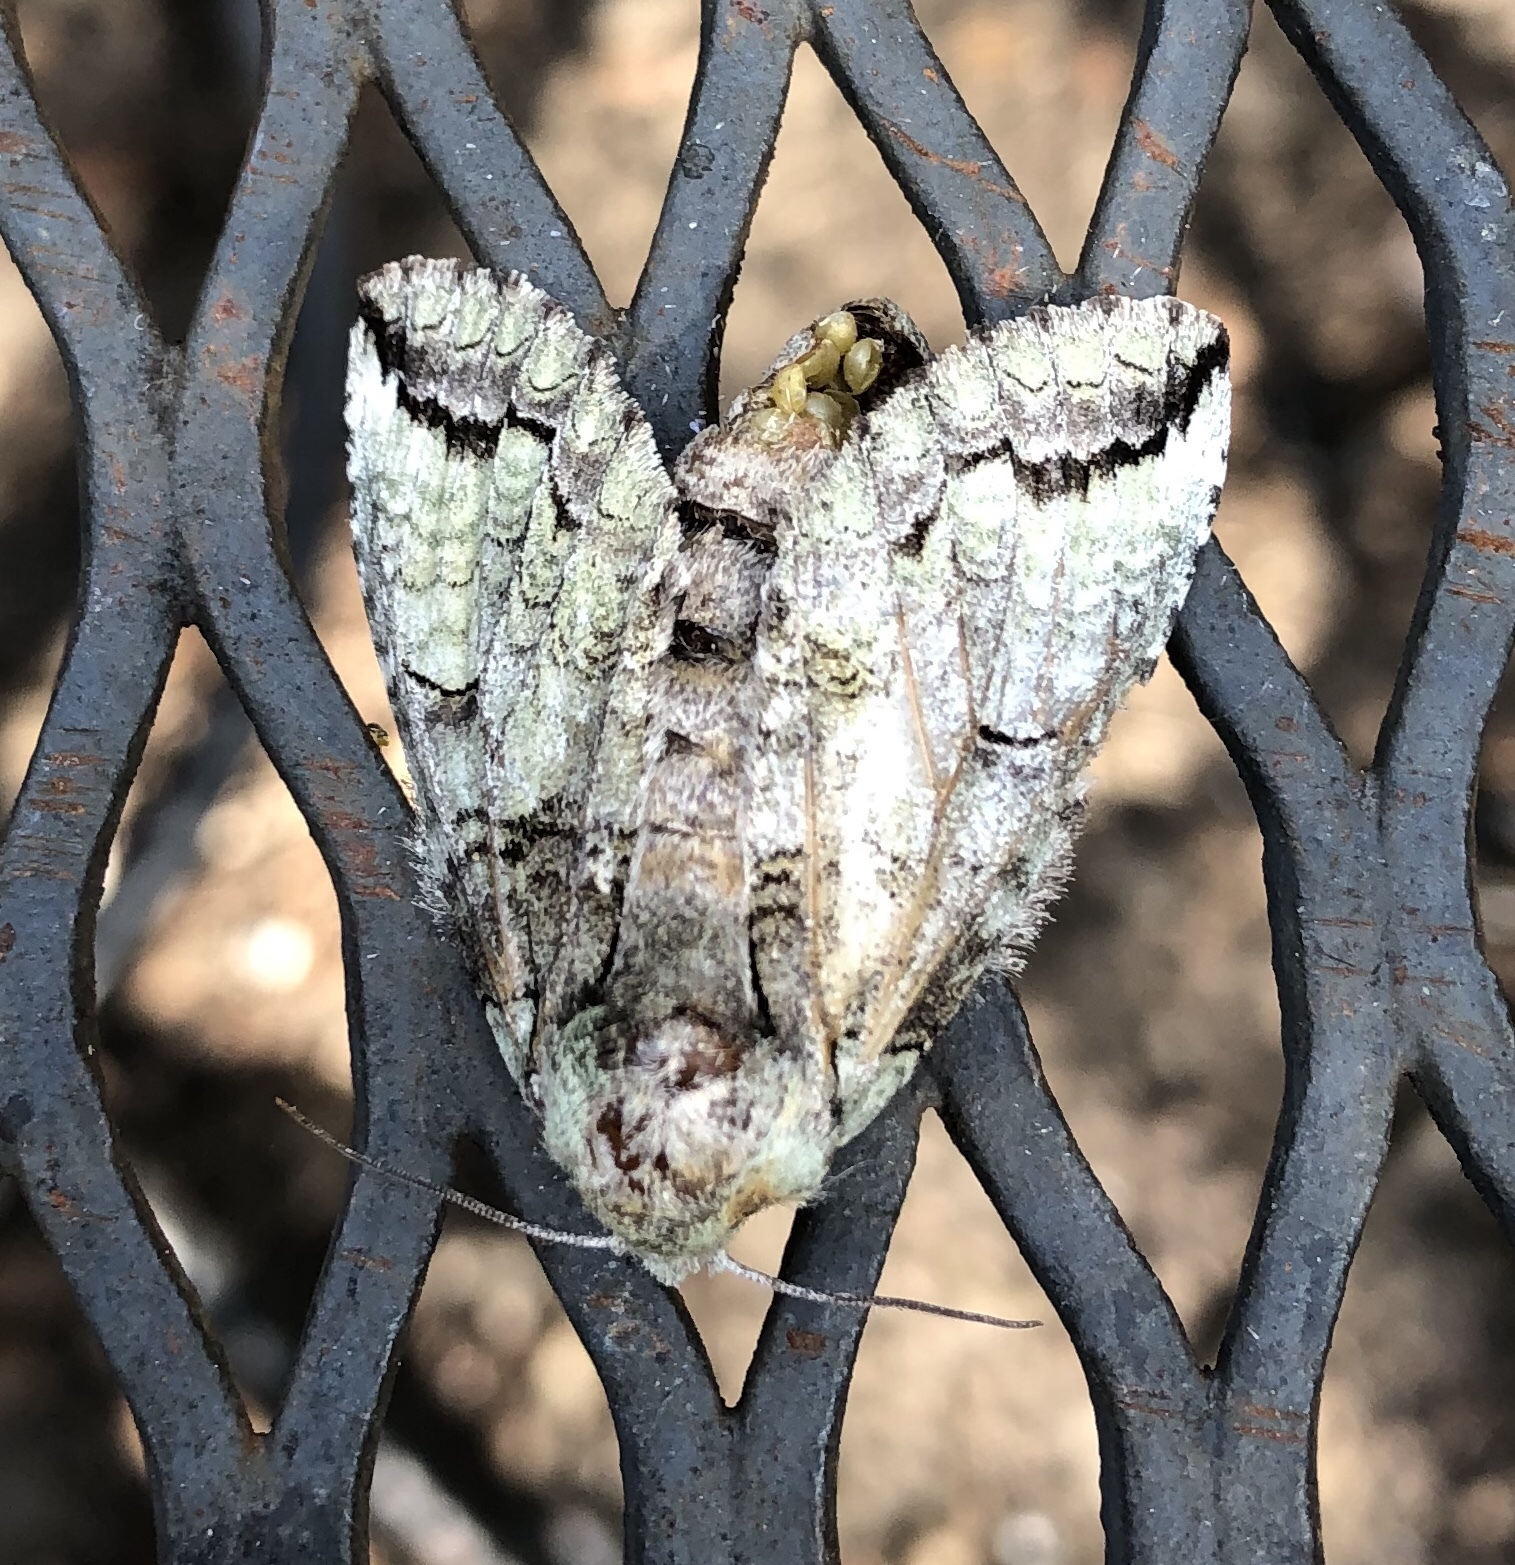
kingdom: Animalia
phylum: Arthropoda
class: Insecta
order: Lepidoptera
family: Notodontidae
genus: Heterocampa
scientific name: Heterocampa astartoides
